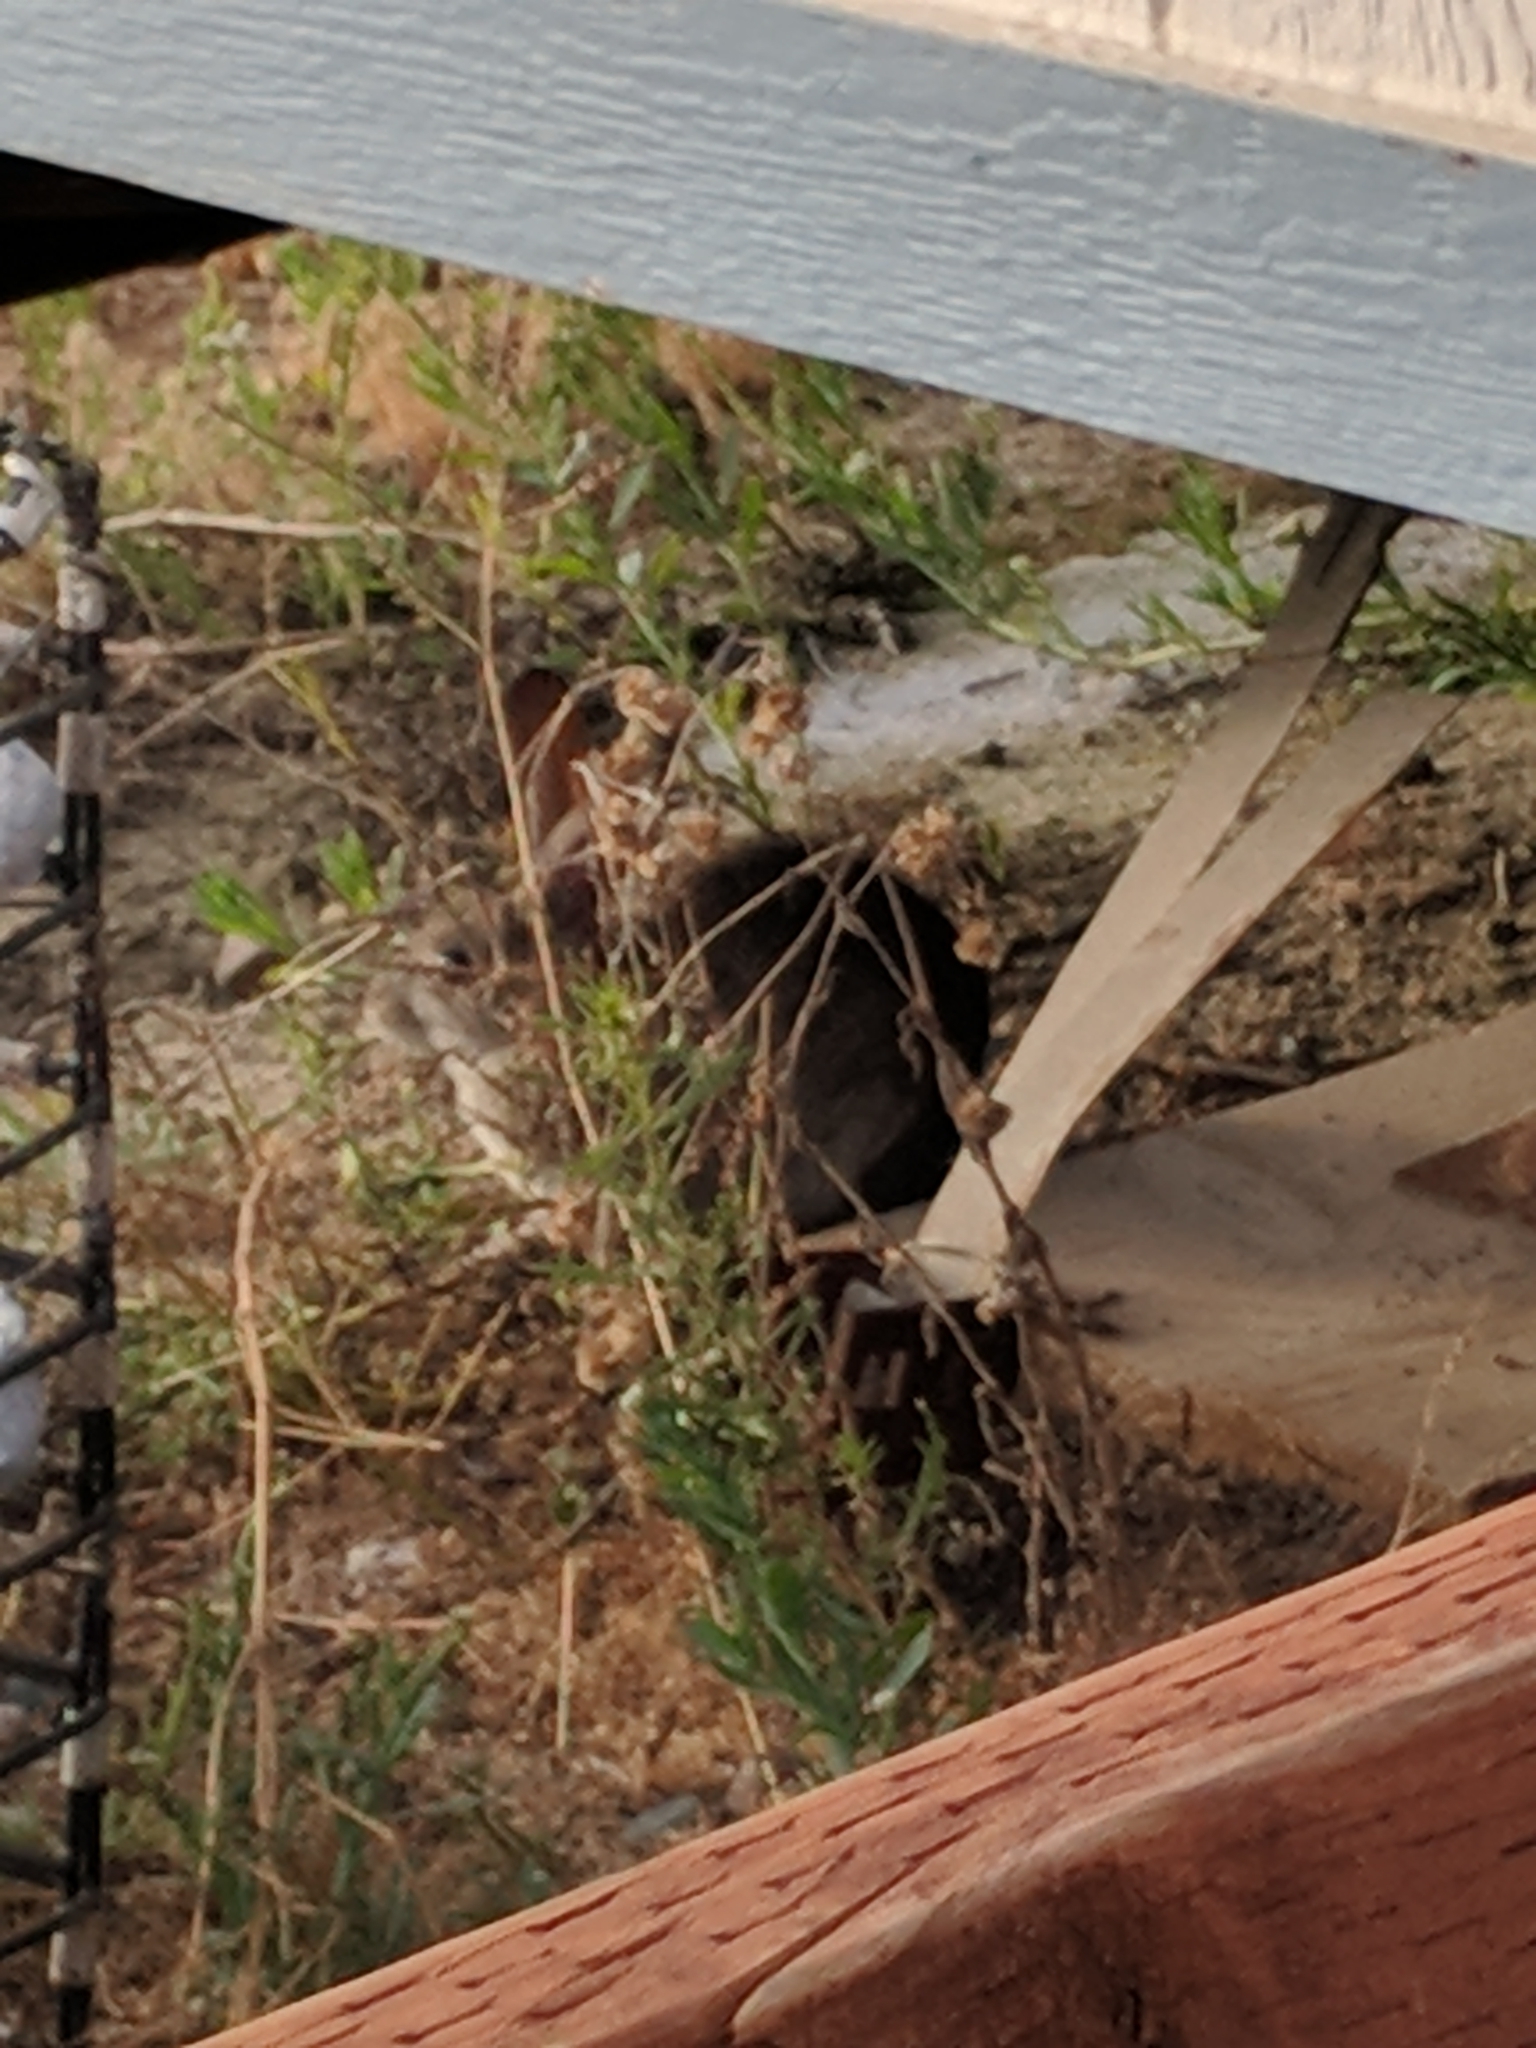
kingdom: Animalia
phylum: Chordata
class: Mammalia
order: Lagomorpha
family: Leporidae
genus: Sylvilagus
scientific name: Sylvilagus audubonii
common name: Desert cottontail
